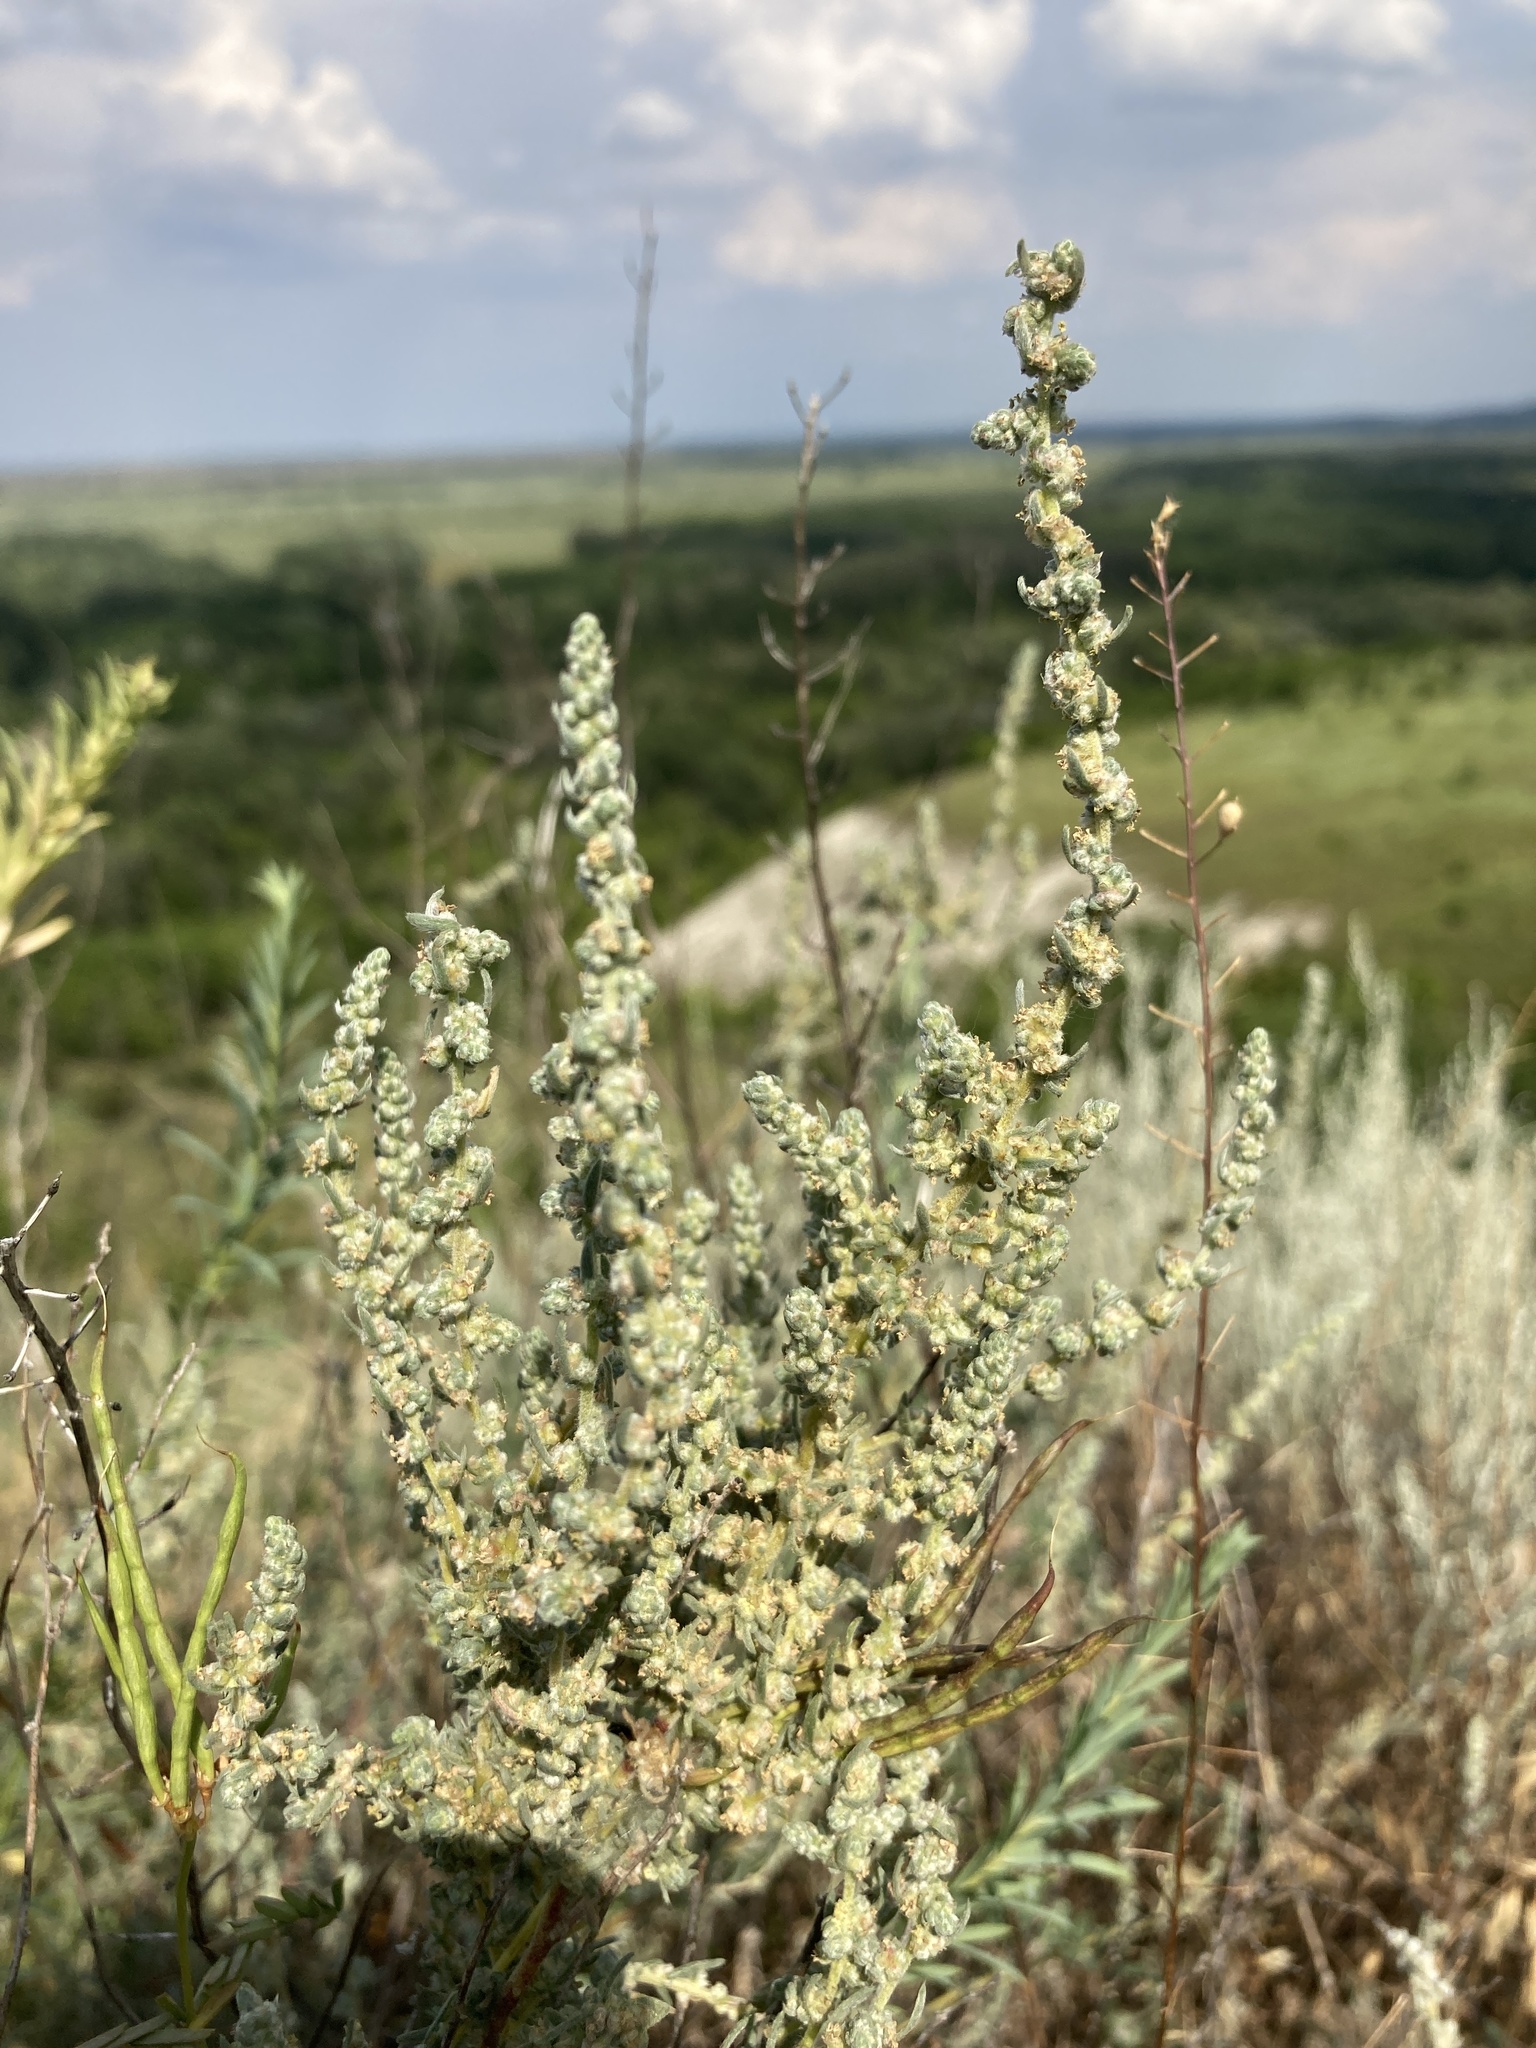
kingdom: Plantae
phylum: Tracheophyta
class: Magnoliopsida
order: Caryophyllales
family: Amaranthaceae
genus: Bassia
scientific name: Bassia prostrata
